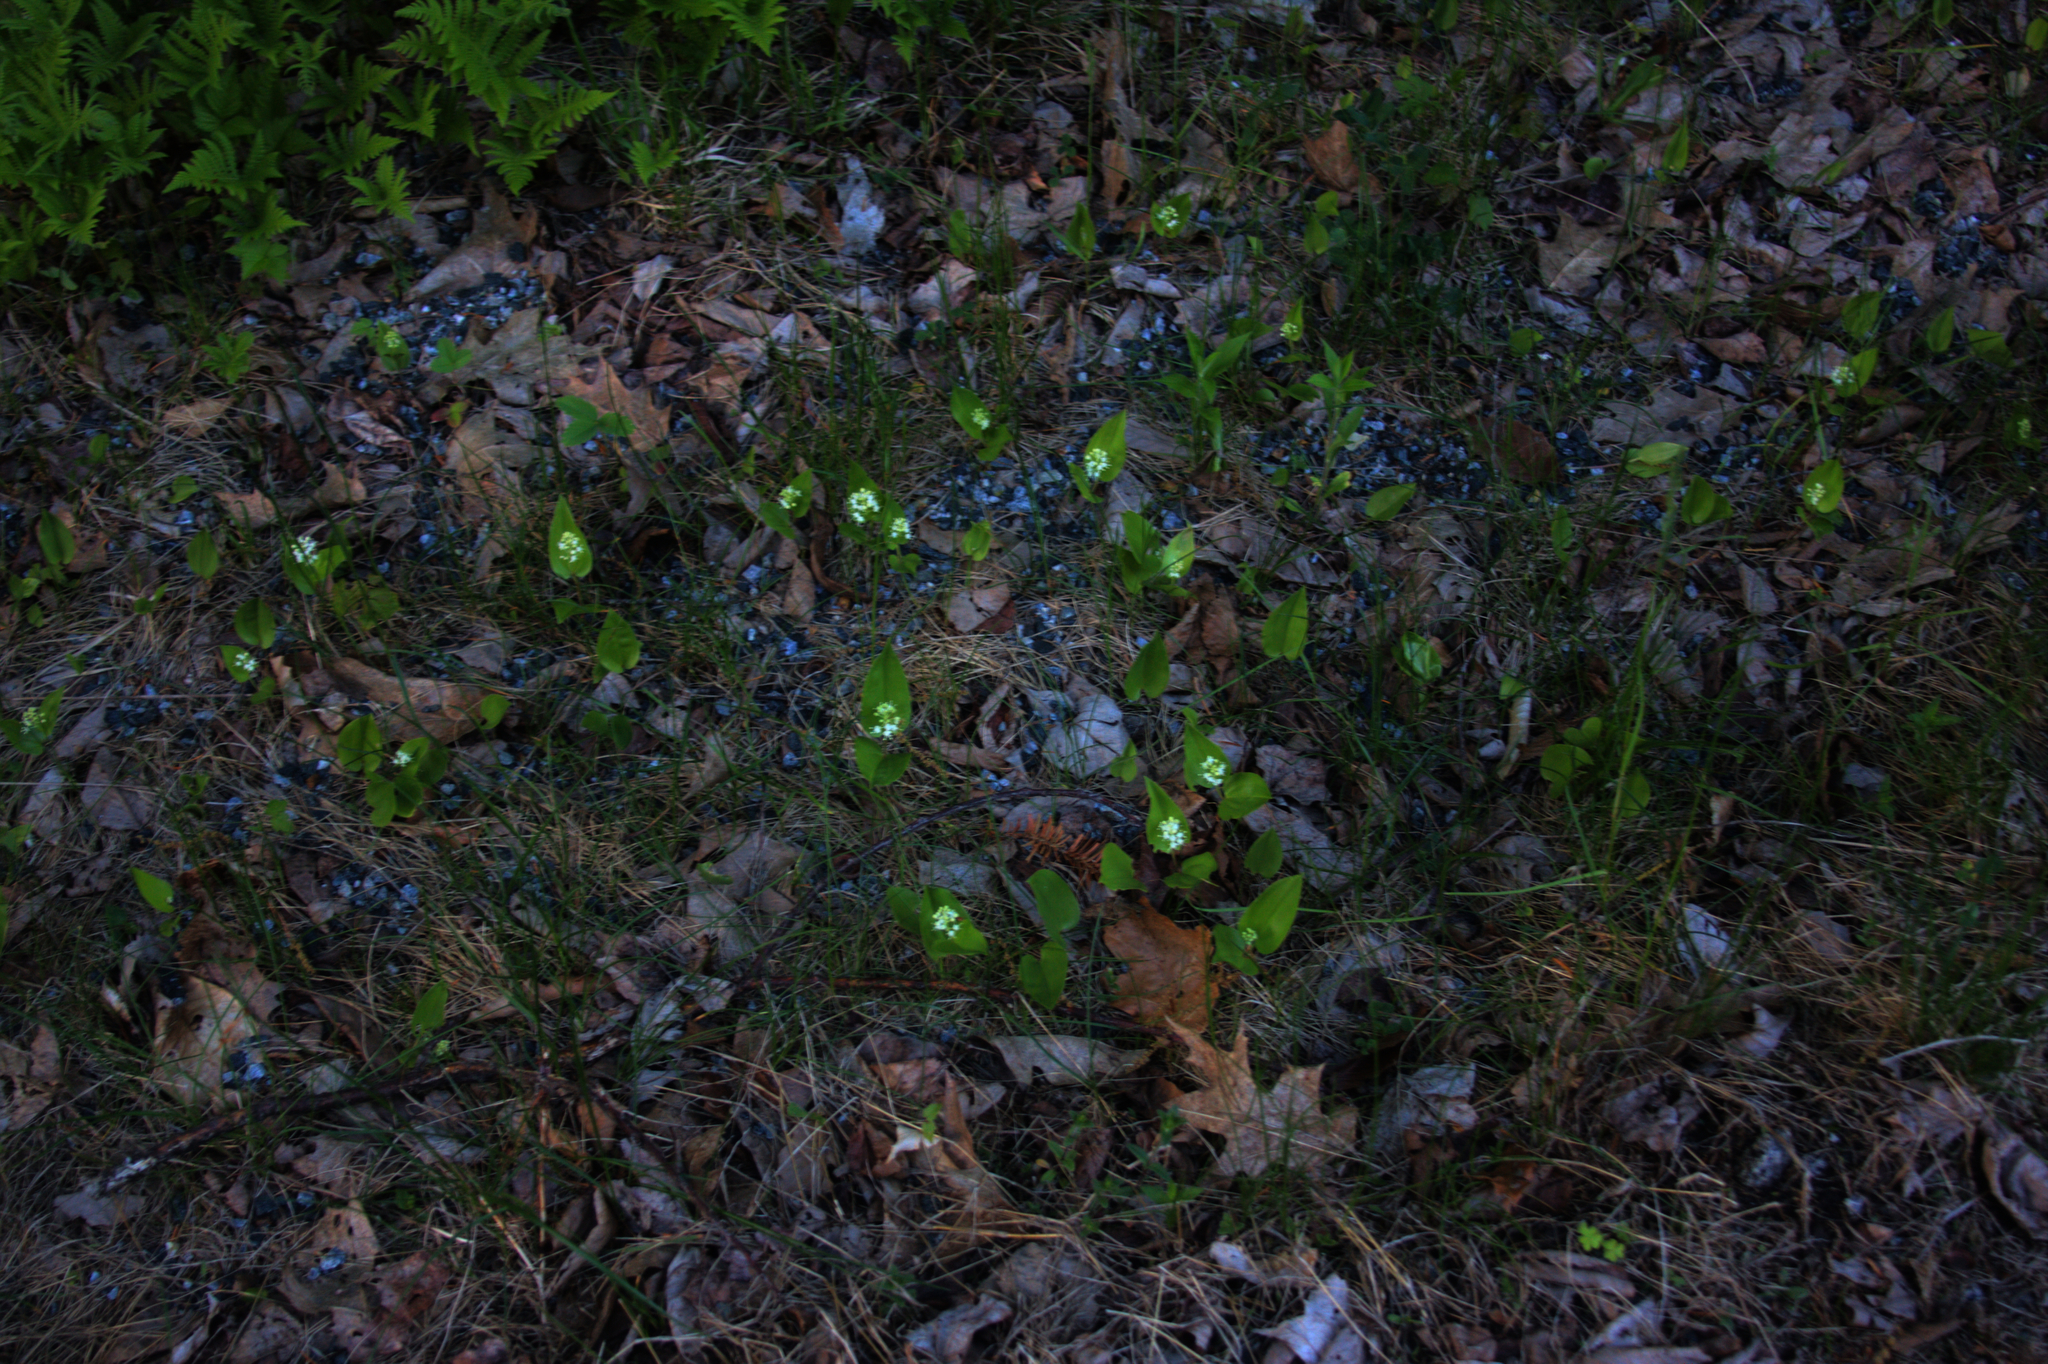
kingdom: Plantae
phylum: Tracheophyta
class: Liliopsida
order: Asparagales
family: Asparagaceae
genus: Maianthemum
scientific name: Maianthemum canadense
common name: False lily-of-the-valley
